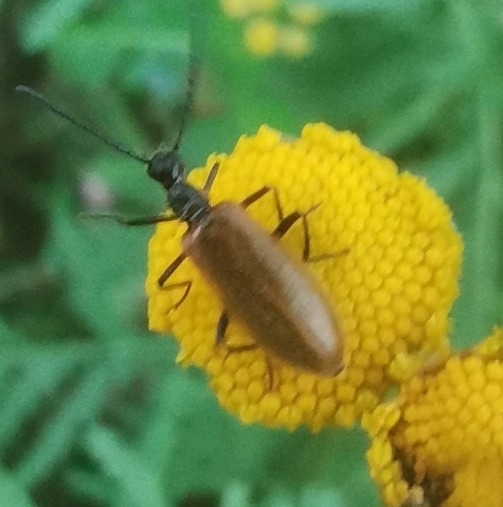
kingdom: Animalia
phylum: Arthropoda
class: Insecta
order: Coleoptera
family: Tenebrionidae
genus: Lagria
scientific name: Lagria hirta
